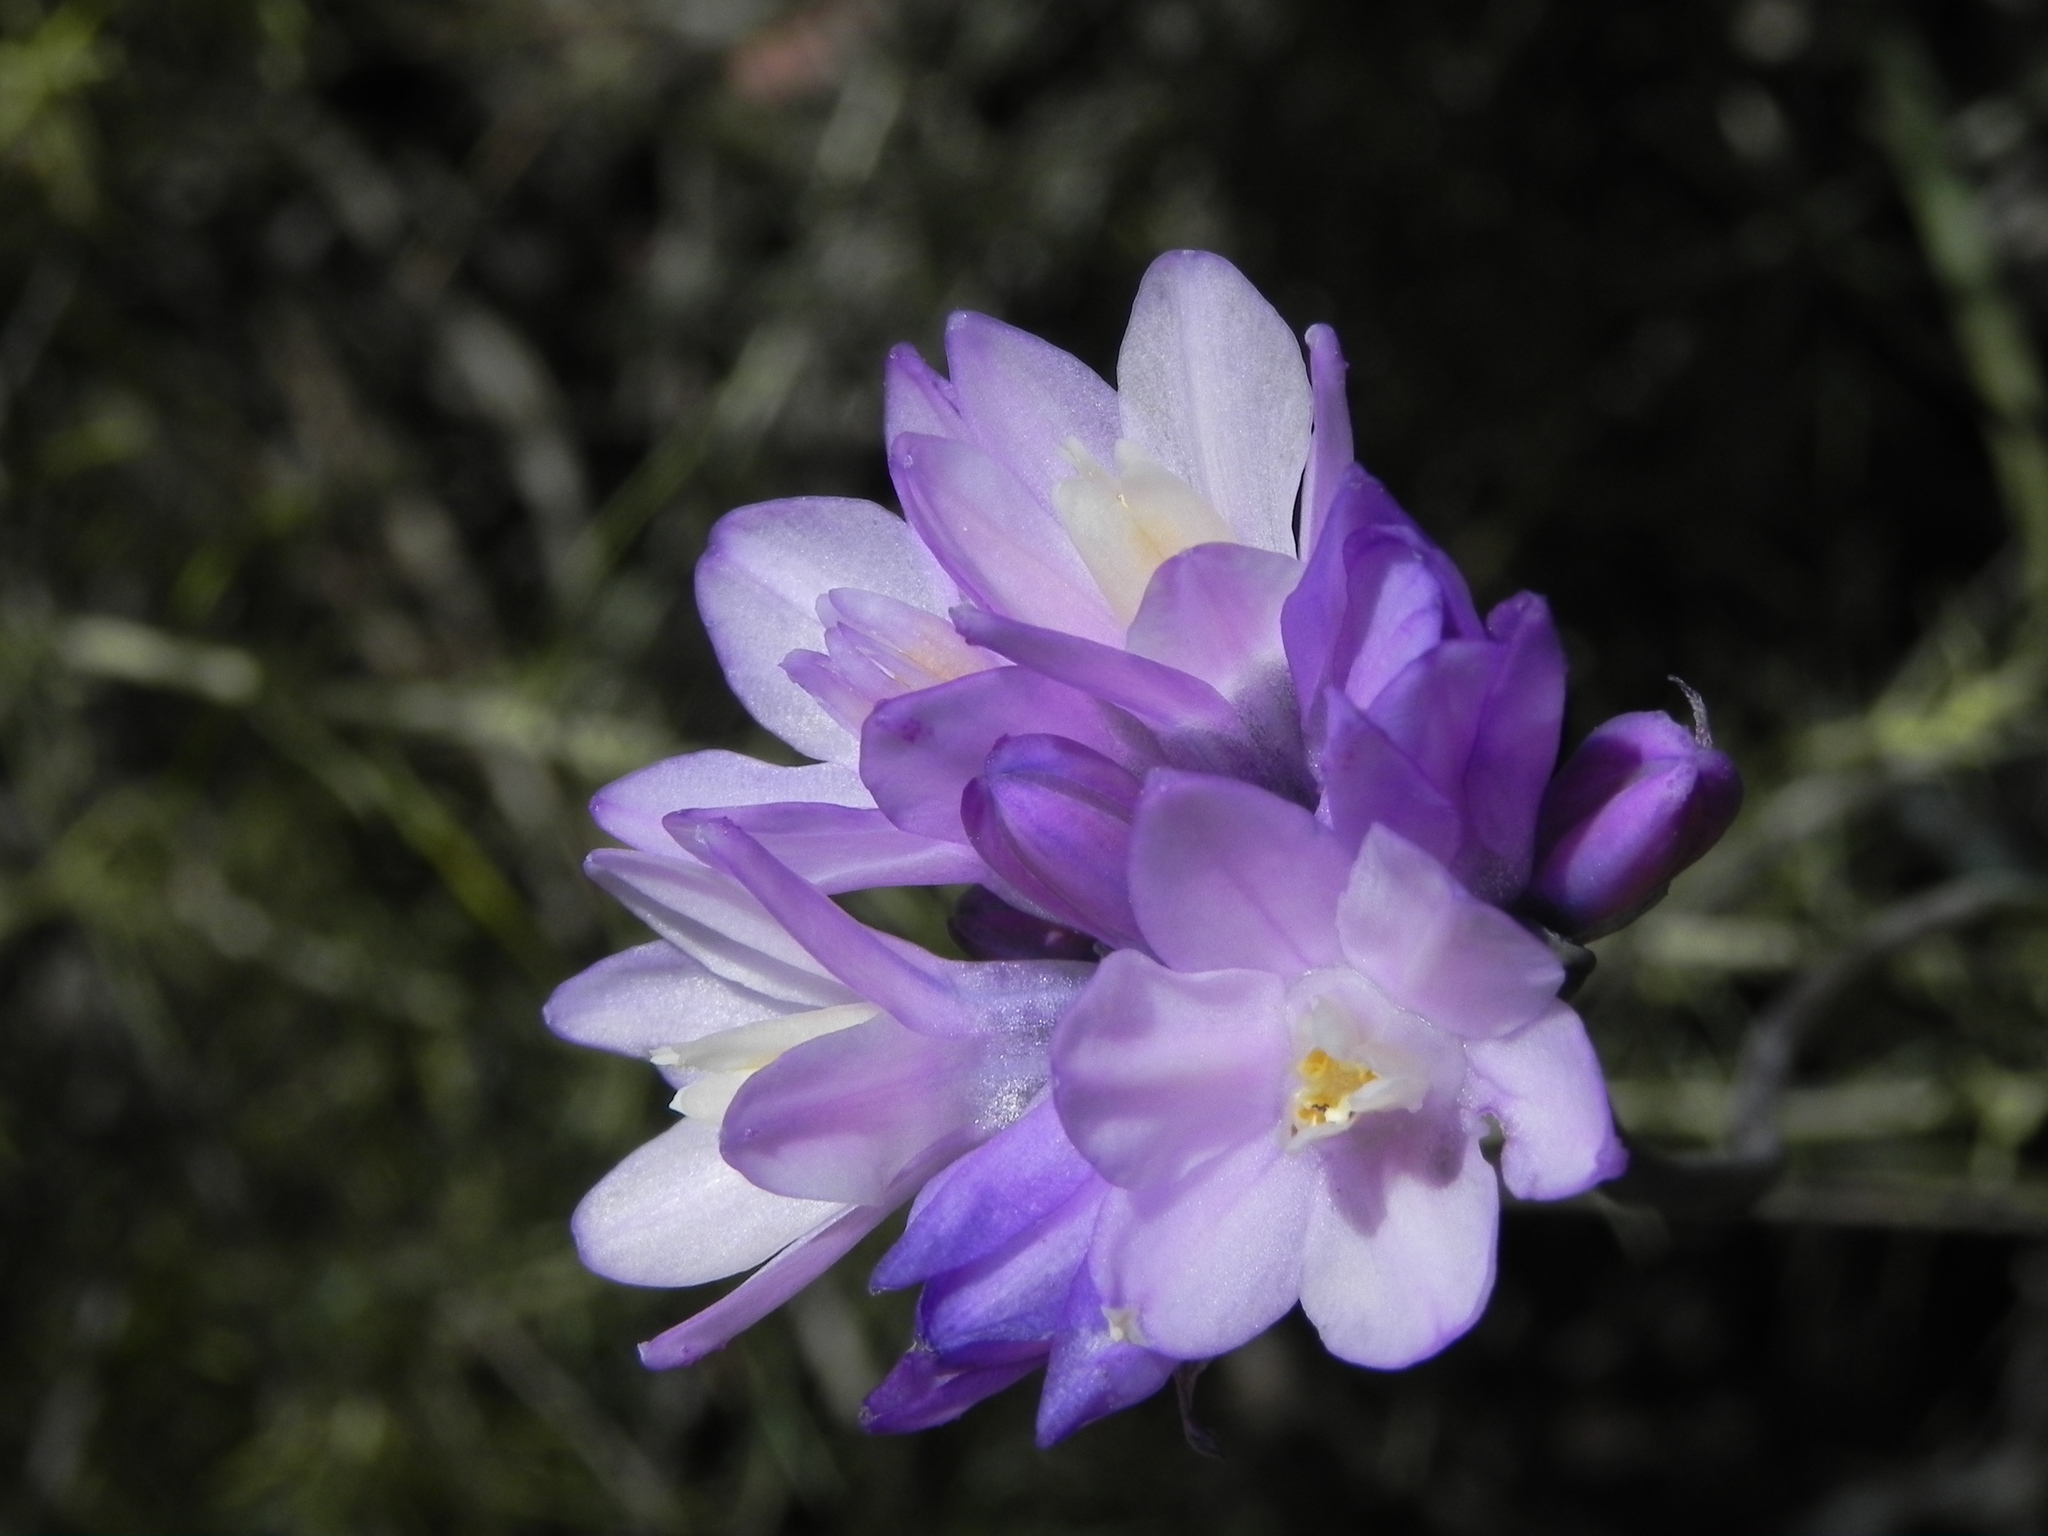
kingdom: Plantae
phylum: Tracheophyta
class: Liliopsida
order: Asparagales
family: Asparagaceae
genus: Dipterostemon
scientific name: Dipterostemon capitatus
